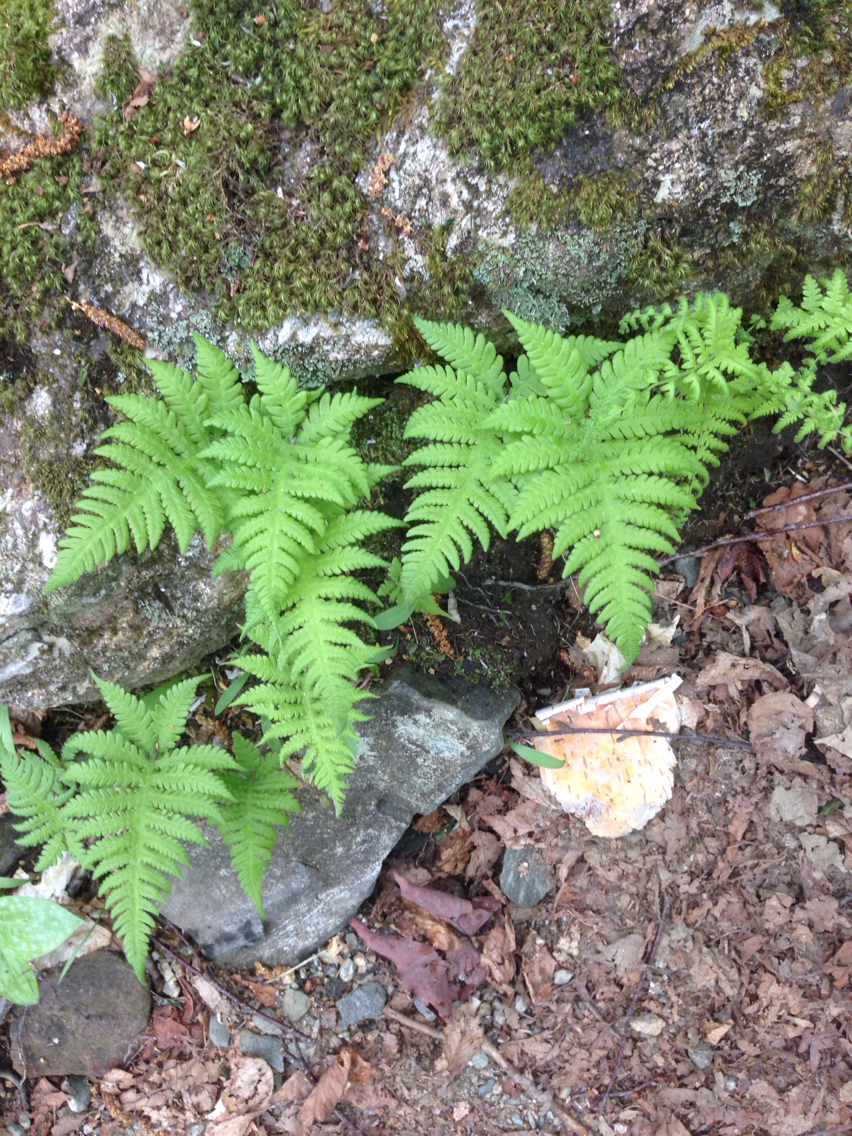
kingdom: Plantae
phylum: Tracheophyta
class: Polypodiopsida
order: Polypodiales
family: Thelypteridaceae
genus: Phegopteris
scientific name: Phegopteris connectilis
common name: Beech fern
